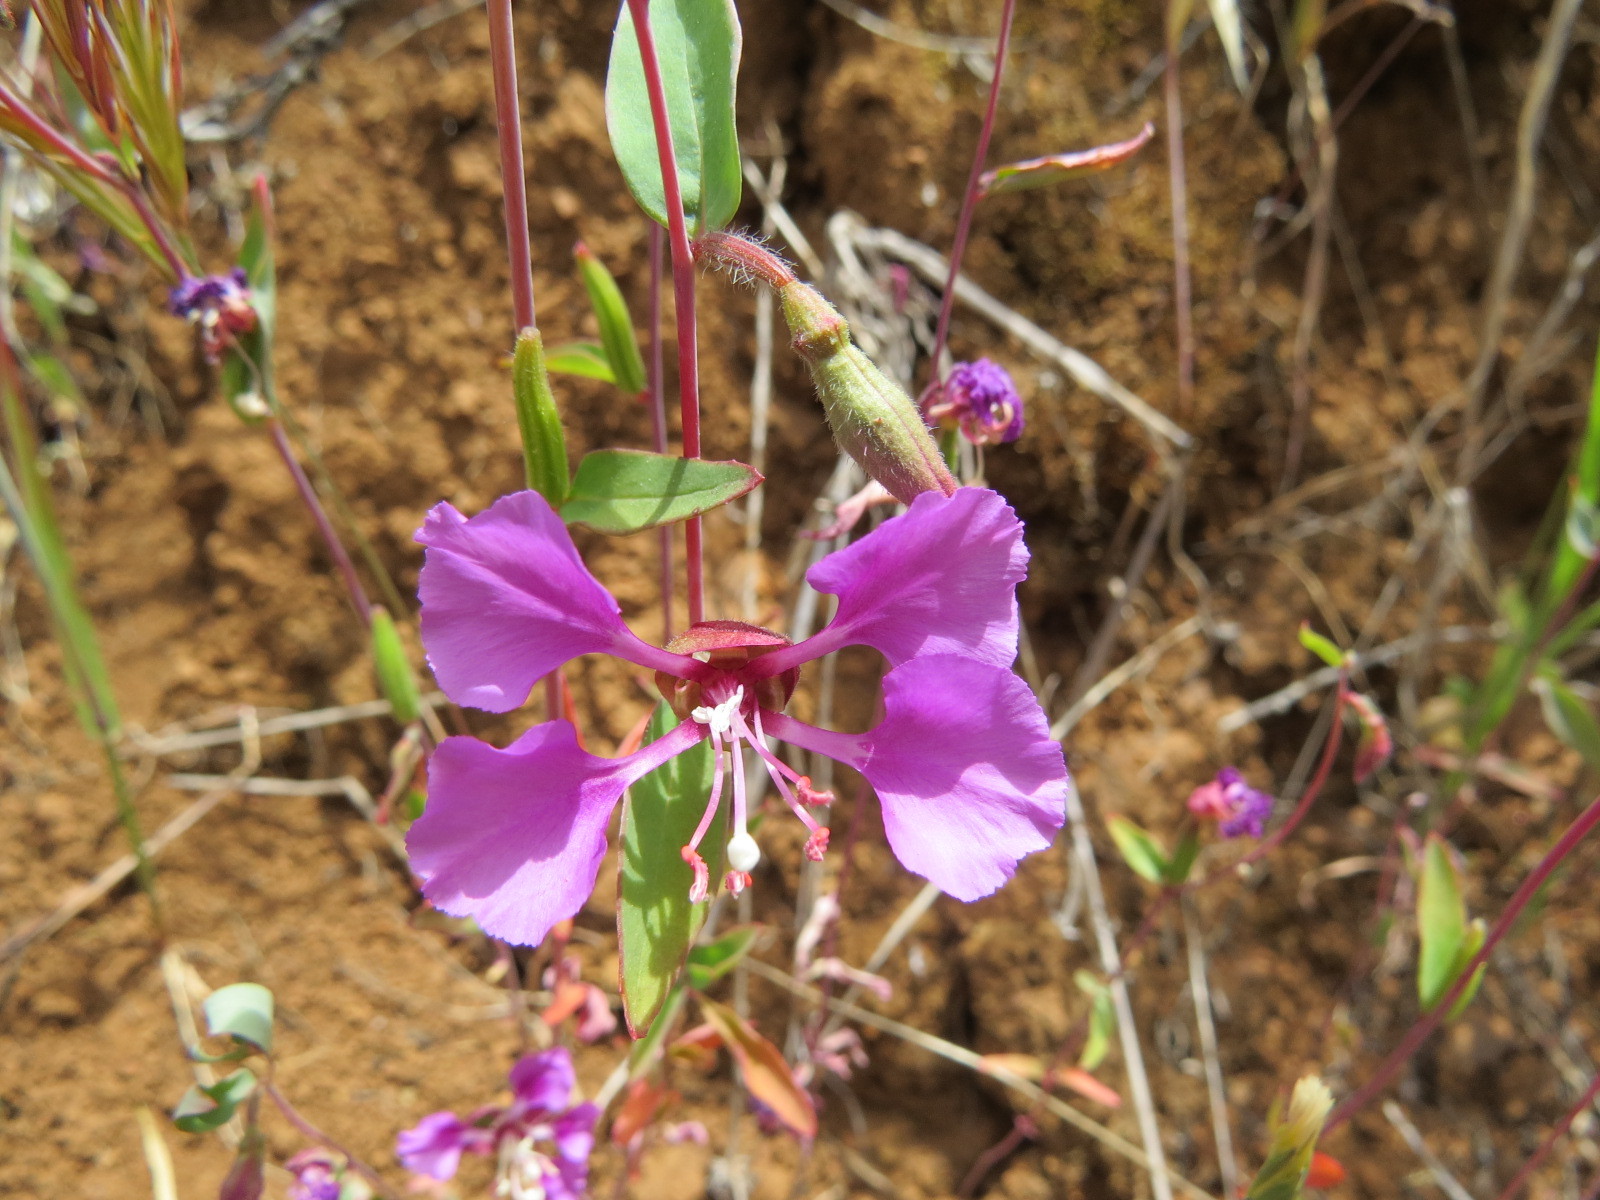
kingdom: Plantae
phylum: Tracheophyta
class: Magnoliopsida
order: Myrtales
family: Onagraceae
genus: Clarkia
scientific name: Clarkia unguiculata
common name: Clarkia
